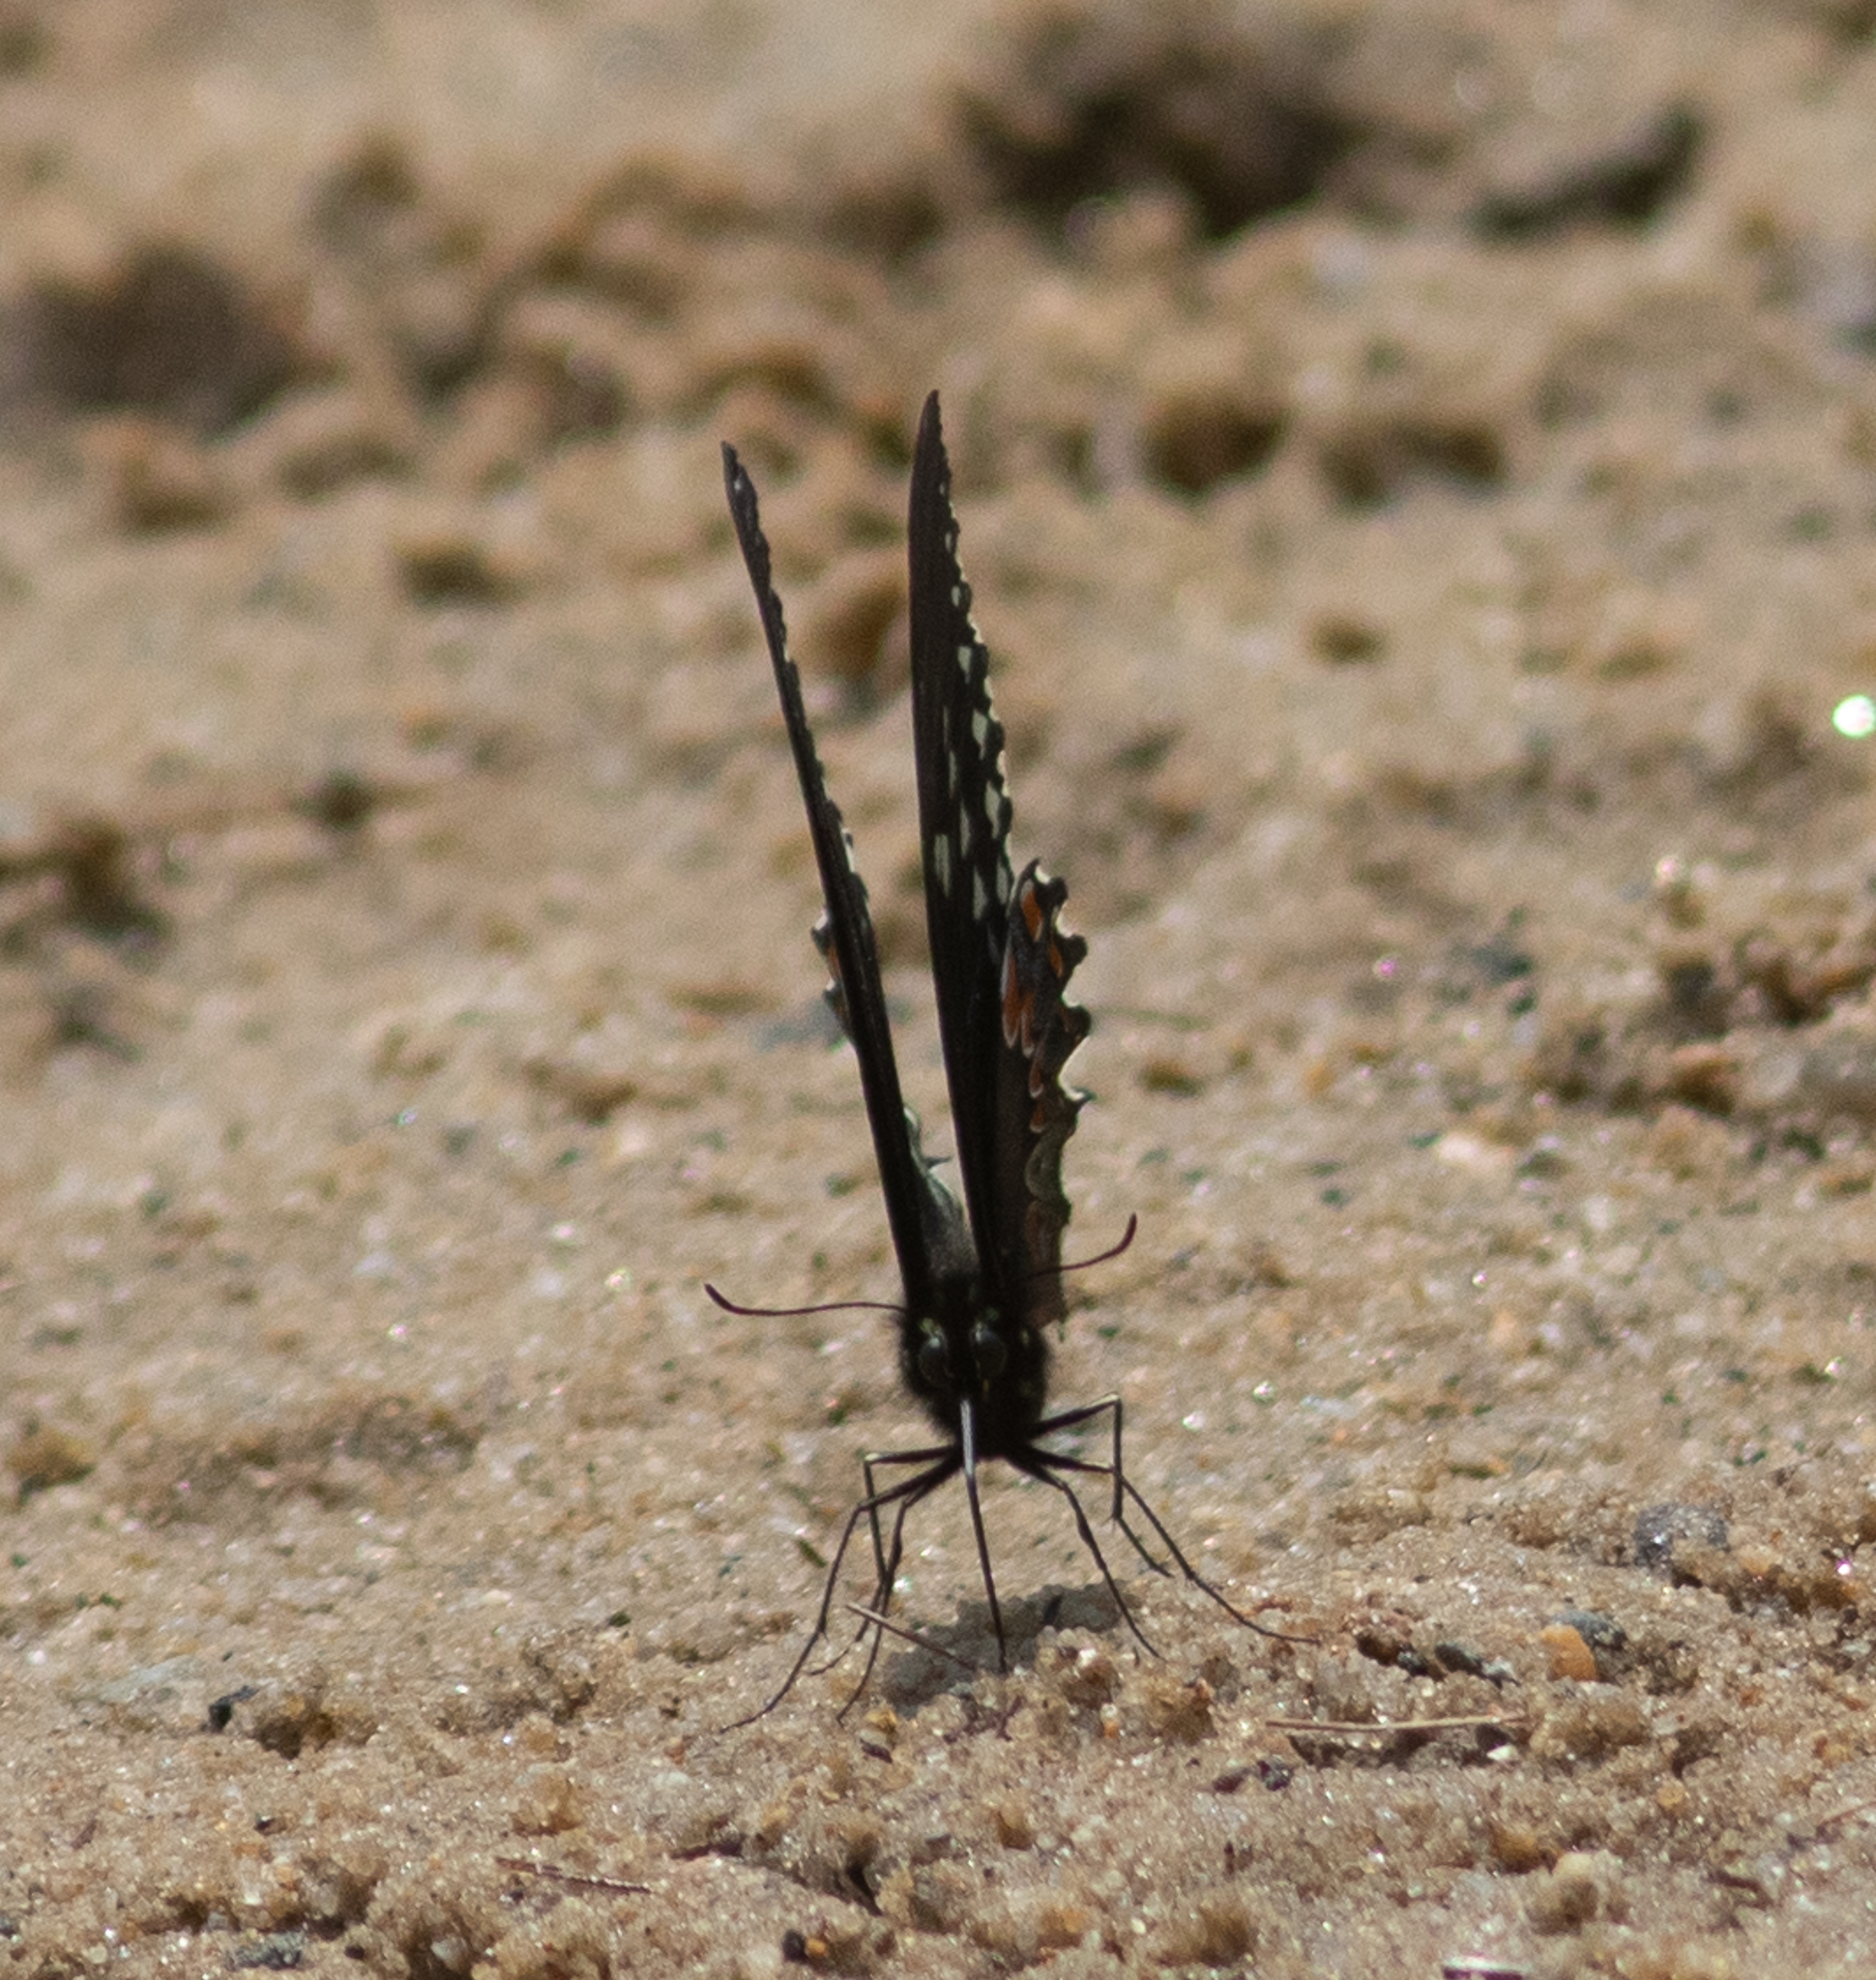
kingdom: Animalia
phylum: Arthropoda
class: Insecta
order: Lepidoptera
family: Papilionidae
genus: Papilio
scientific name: Papilio troilus
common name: Spicebush swallowtail
